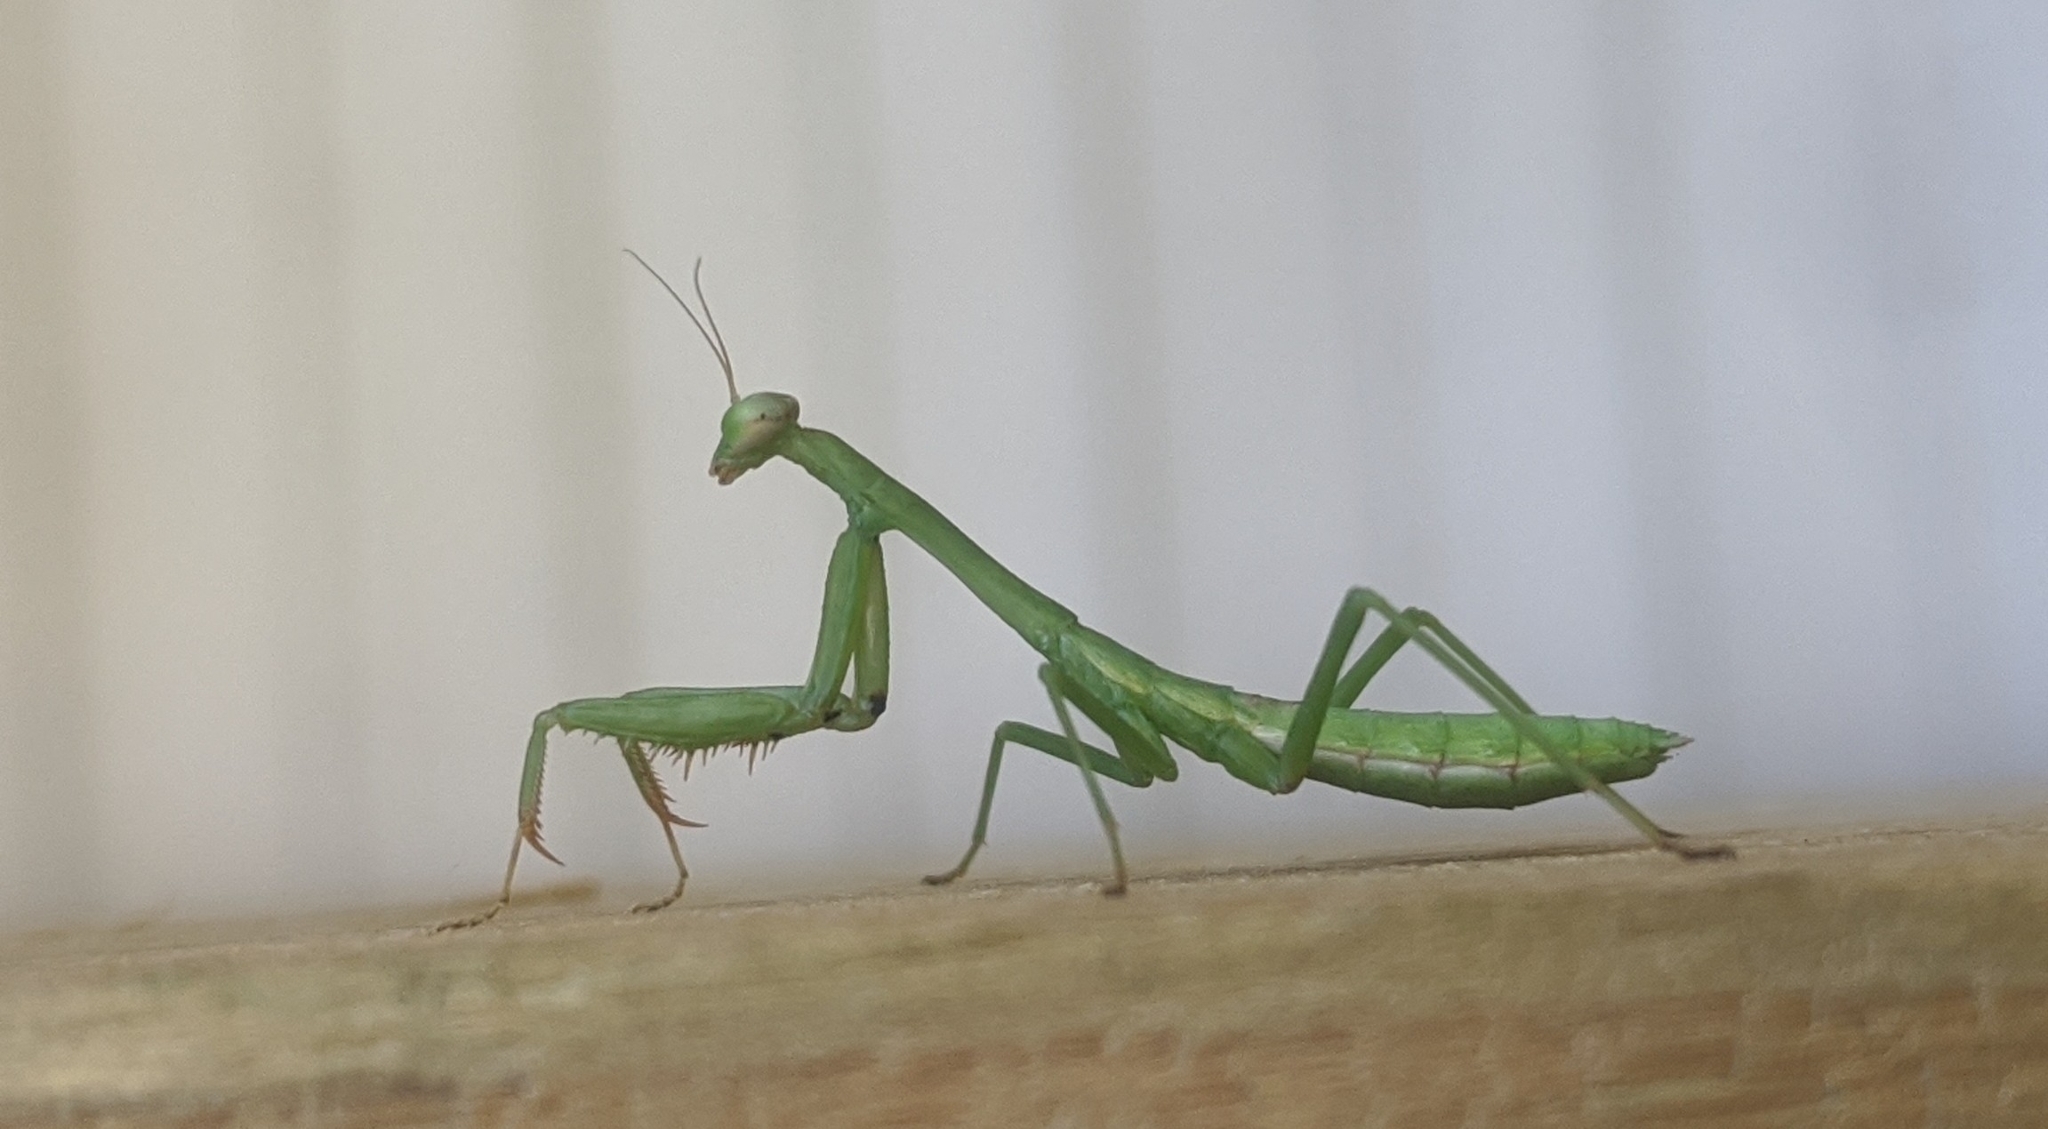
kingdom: Animalia
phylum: Arthropoda
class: Insecta
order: Mantodea
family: Mantidae
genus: Stagmomantis
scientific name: Stagmomantis carolina
